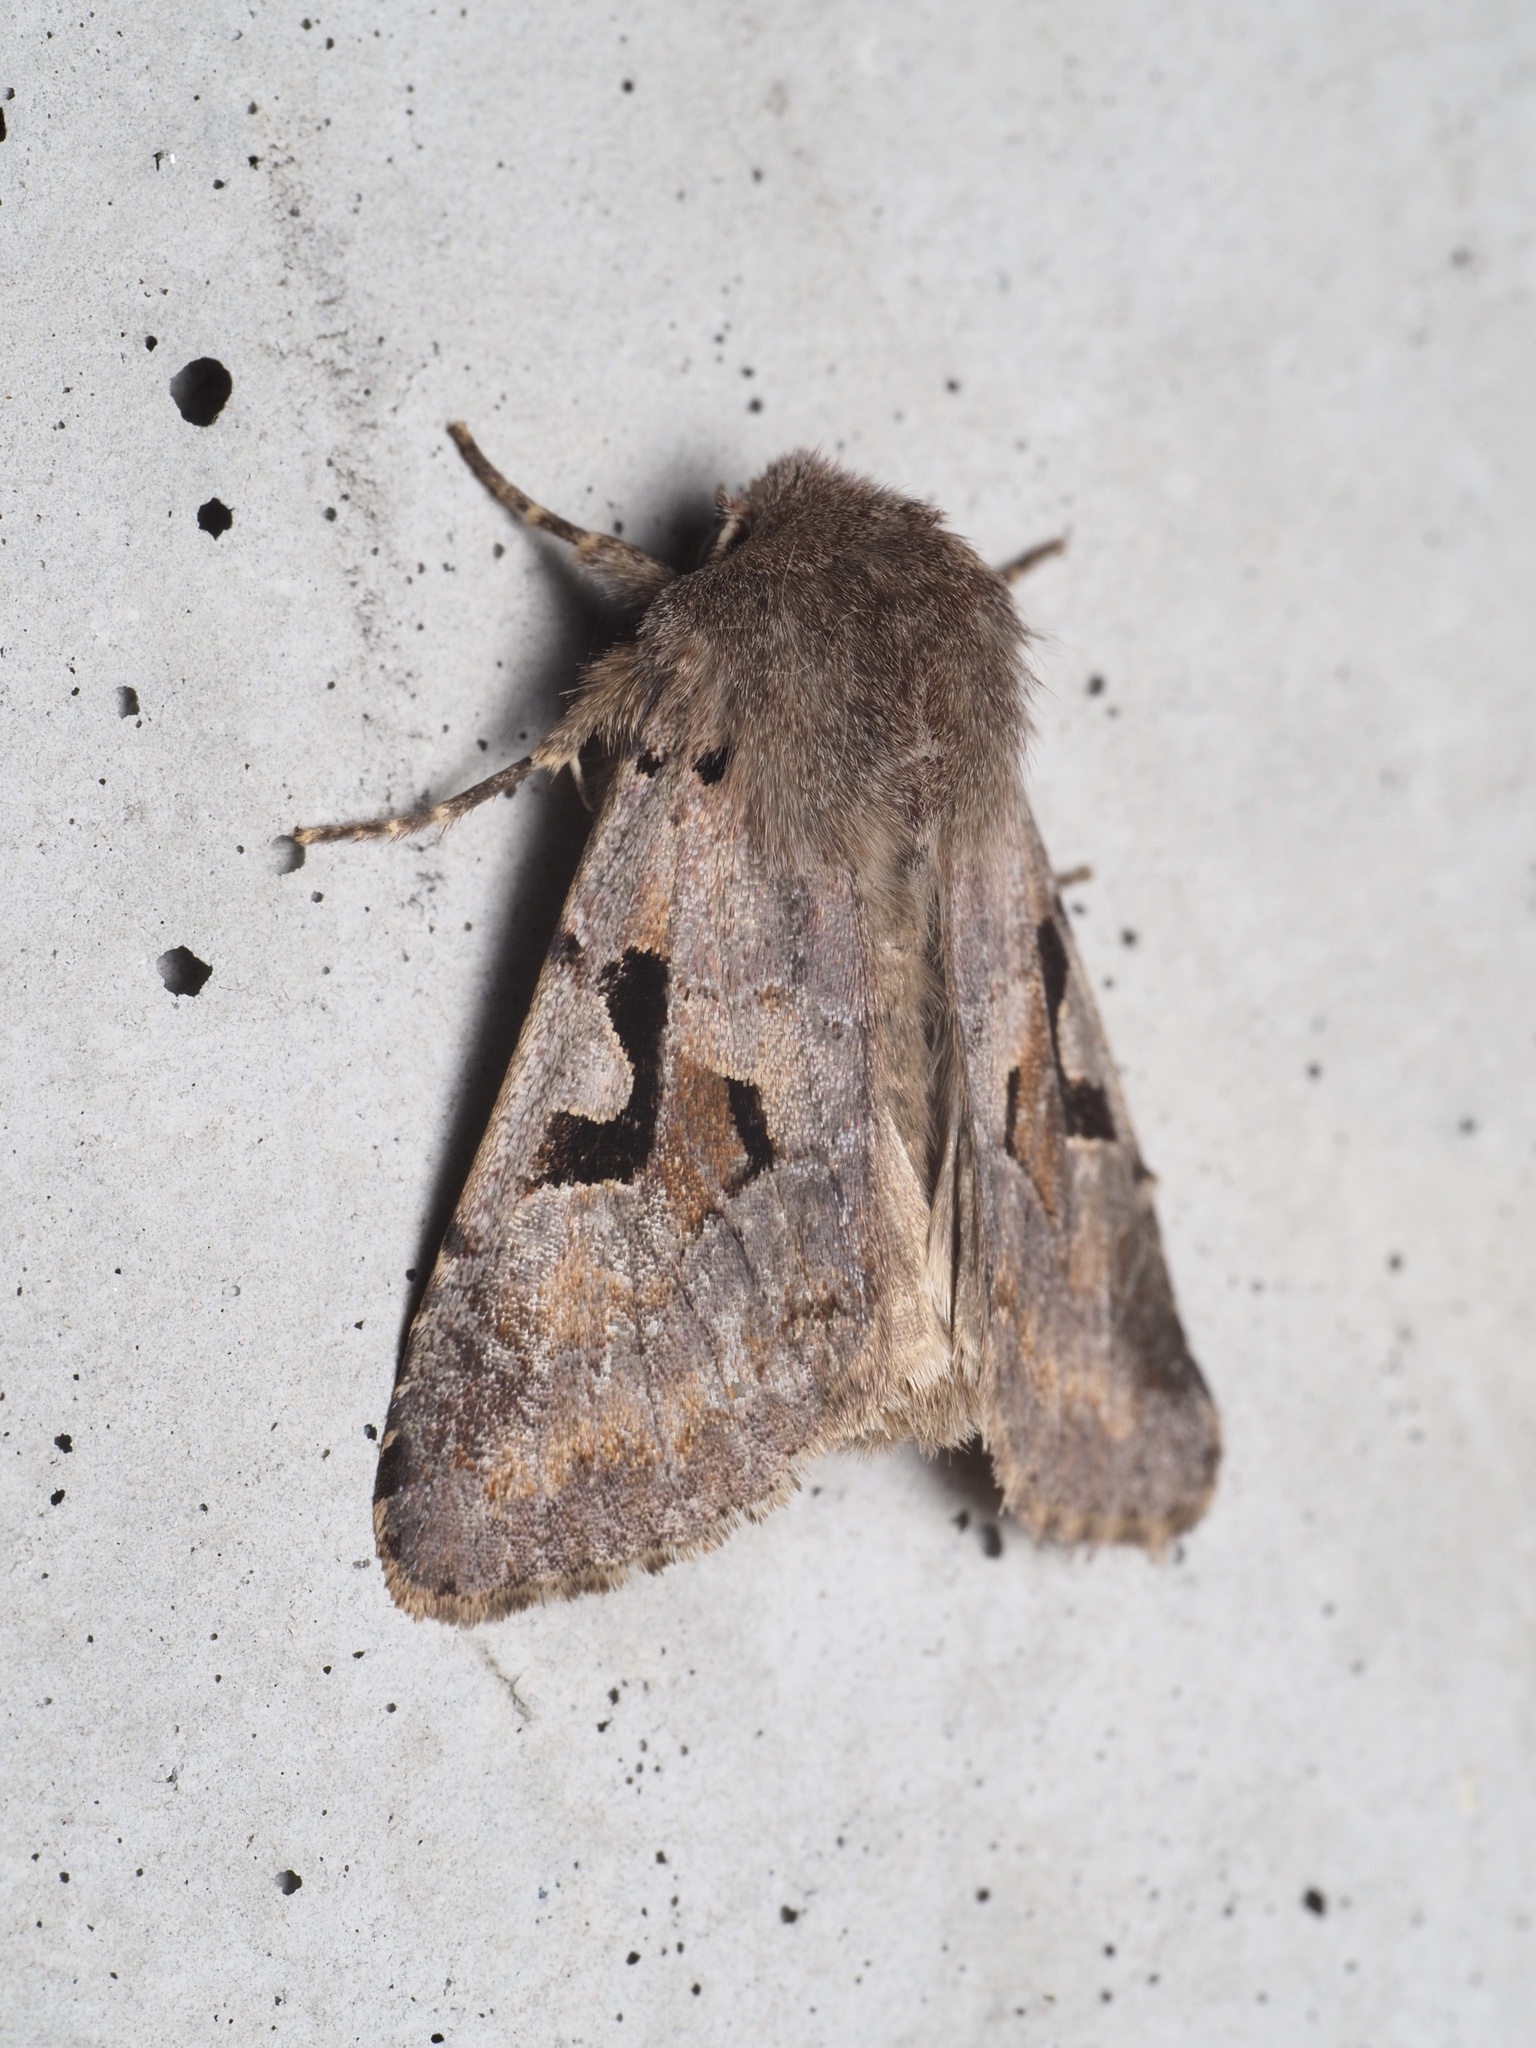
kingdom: Animalia
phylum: Arthropoda
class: Insecta
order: Lepidoptera
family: Noctuidae
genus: Orthosia
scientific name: Orthosia gothica
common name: Hebrew character
